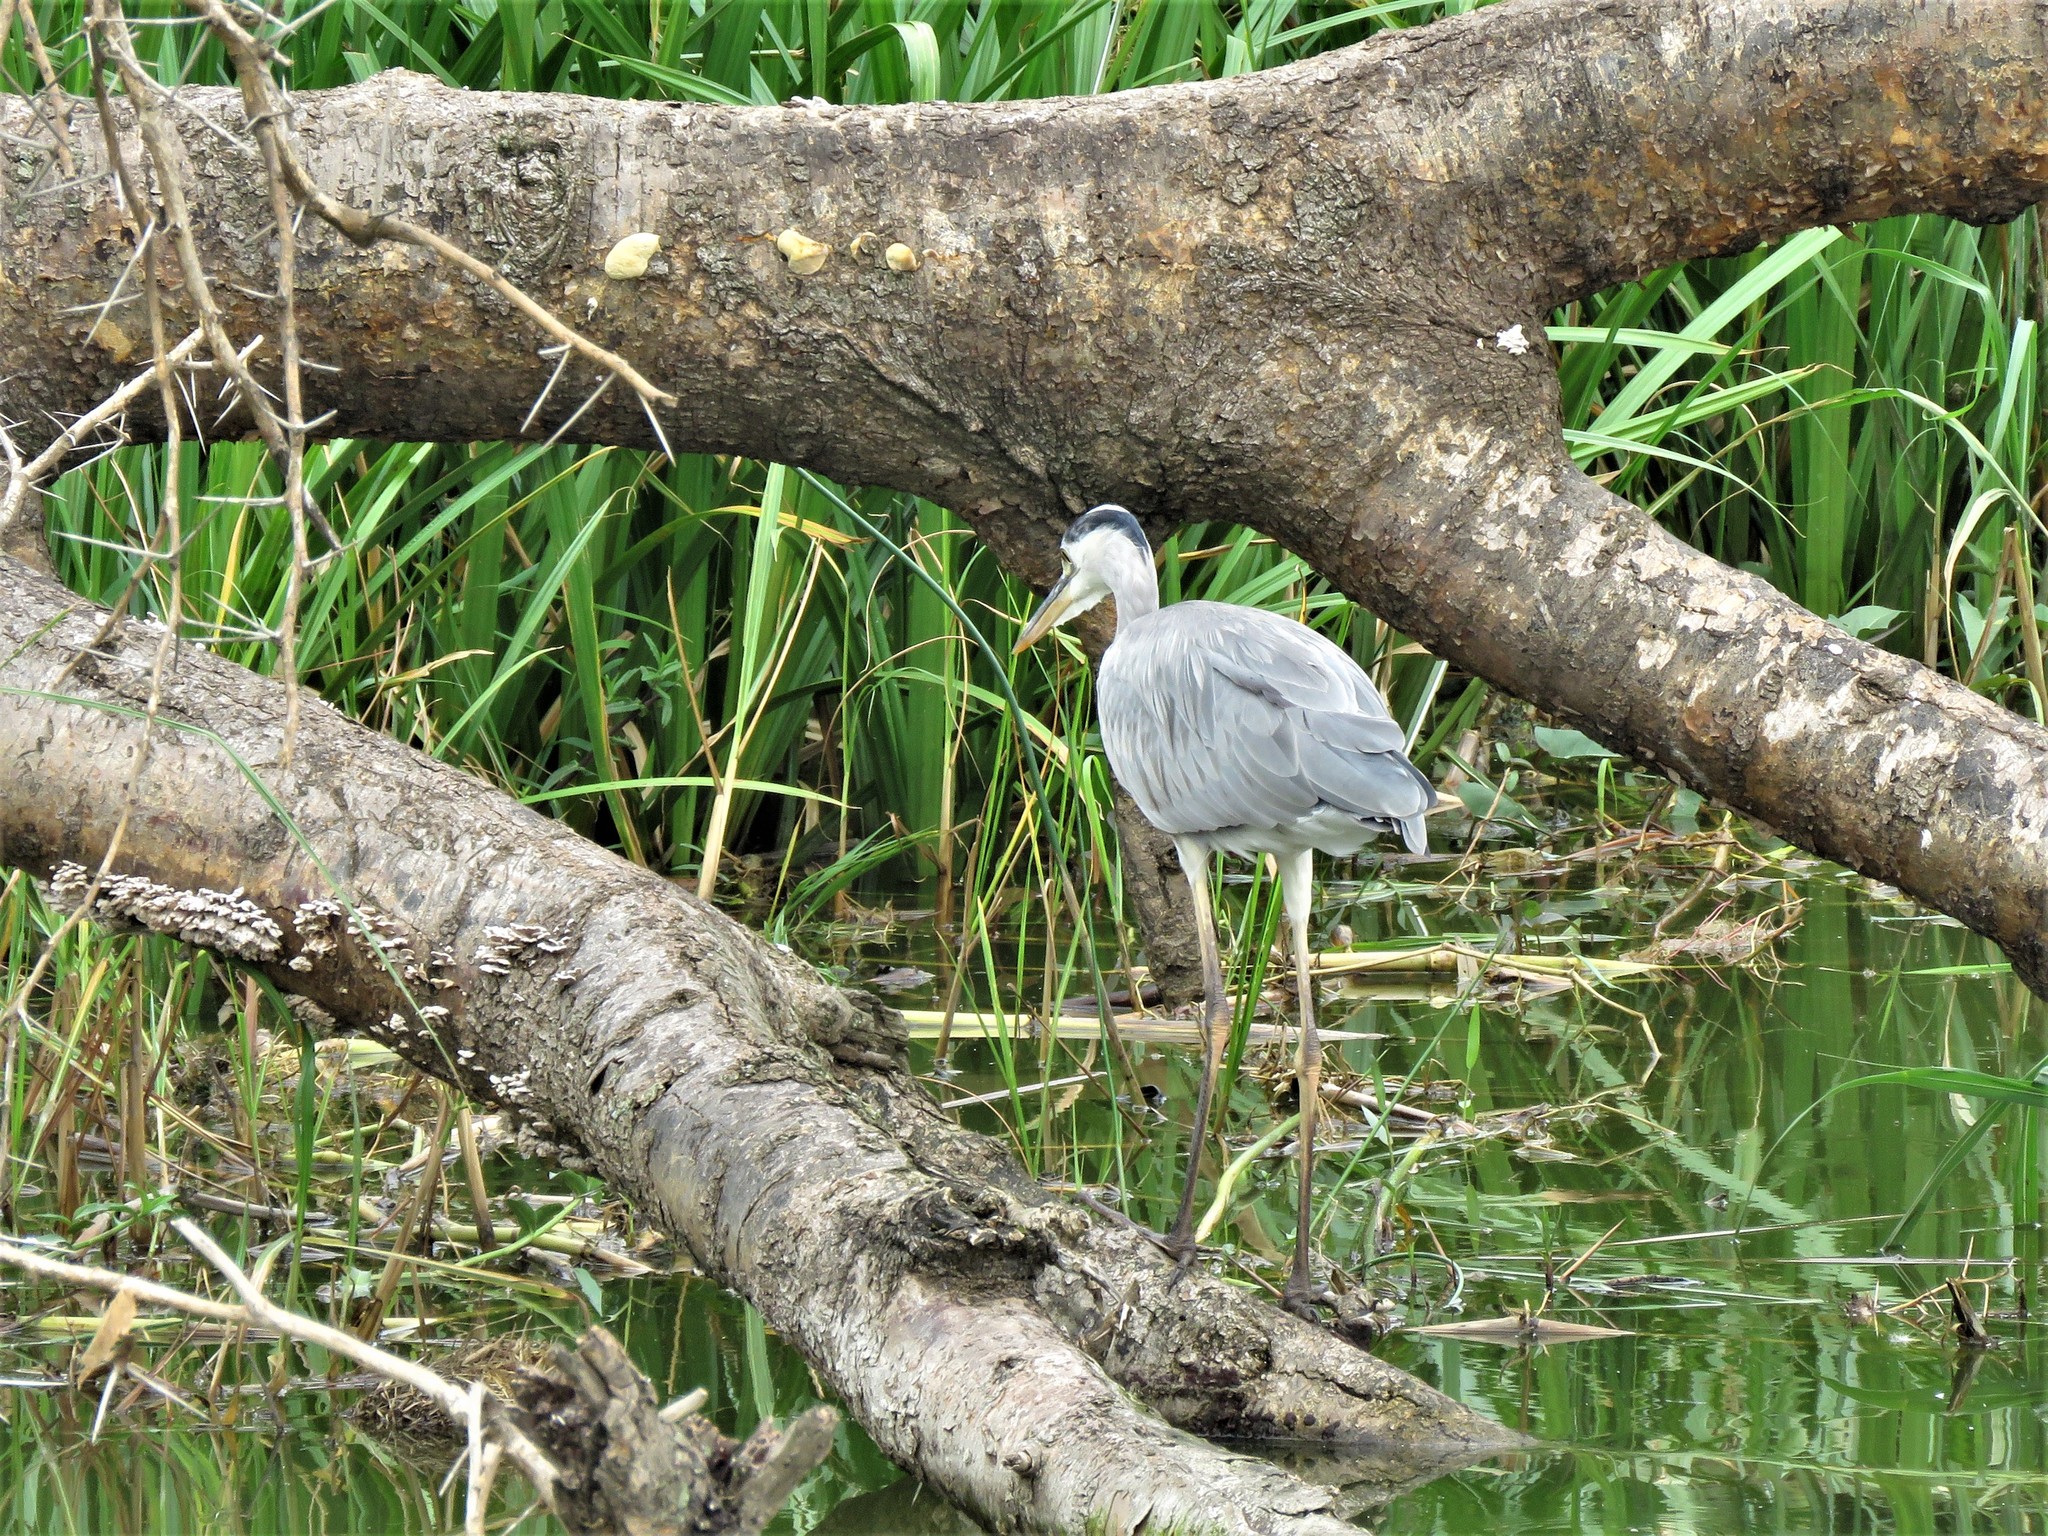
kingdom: Animalia
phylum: Chordata
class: Aves
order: Pelecaniformes
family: Ardeidae
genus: Ardea
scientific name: Ardea cinerea
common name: Grey heron
